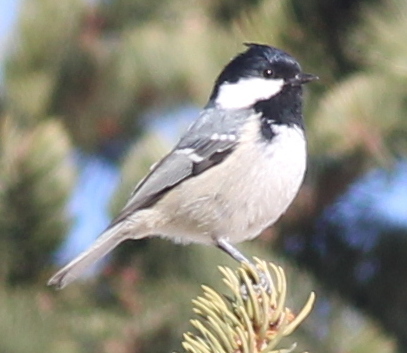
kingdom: Animalia
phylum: Chordata
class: Aves
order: Passeriformes
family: Paridae
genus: Periparus
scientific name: Periparus ater
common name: Coal tit
